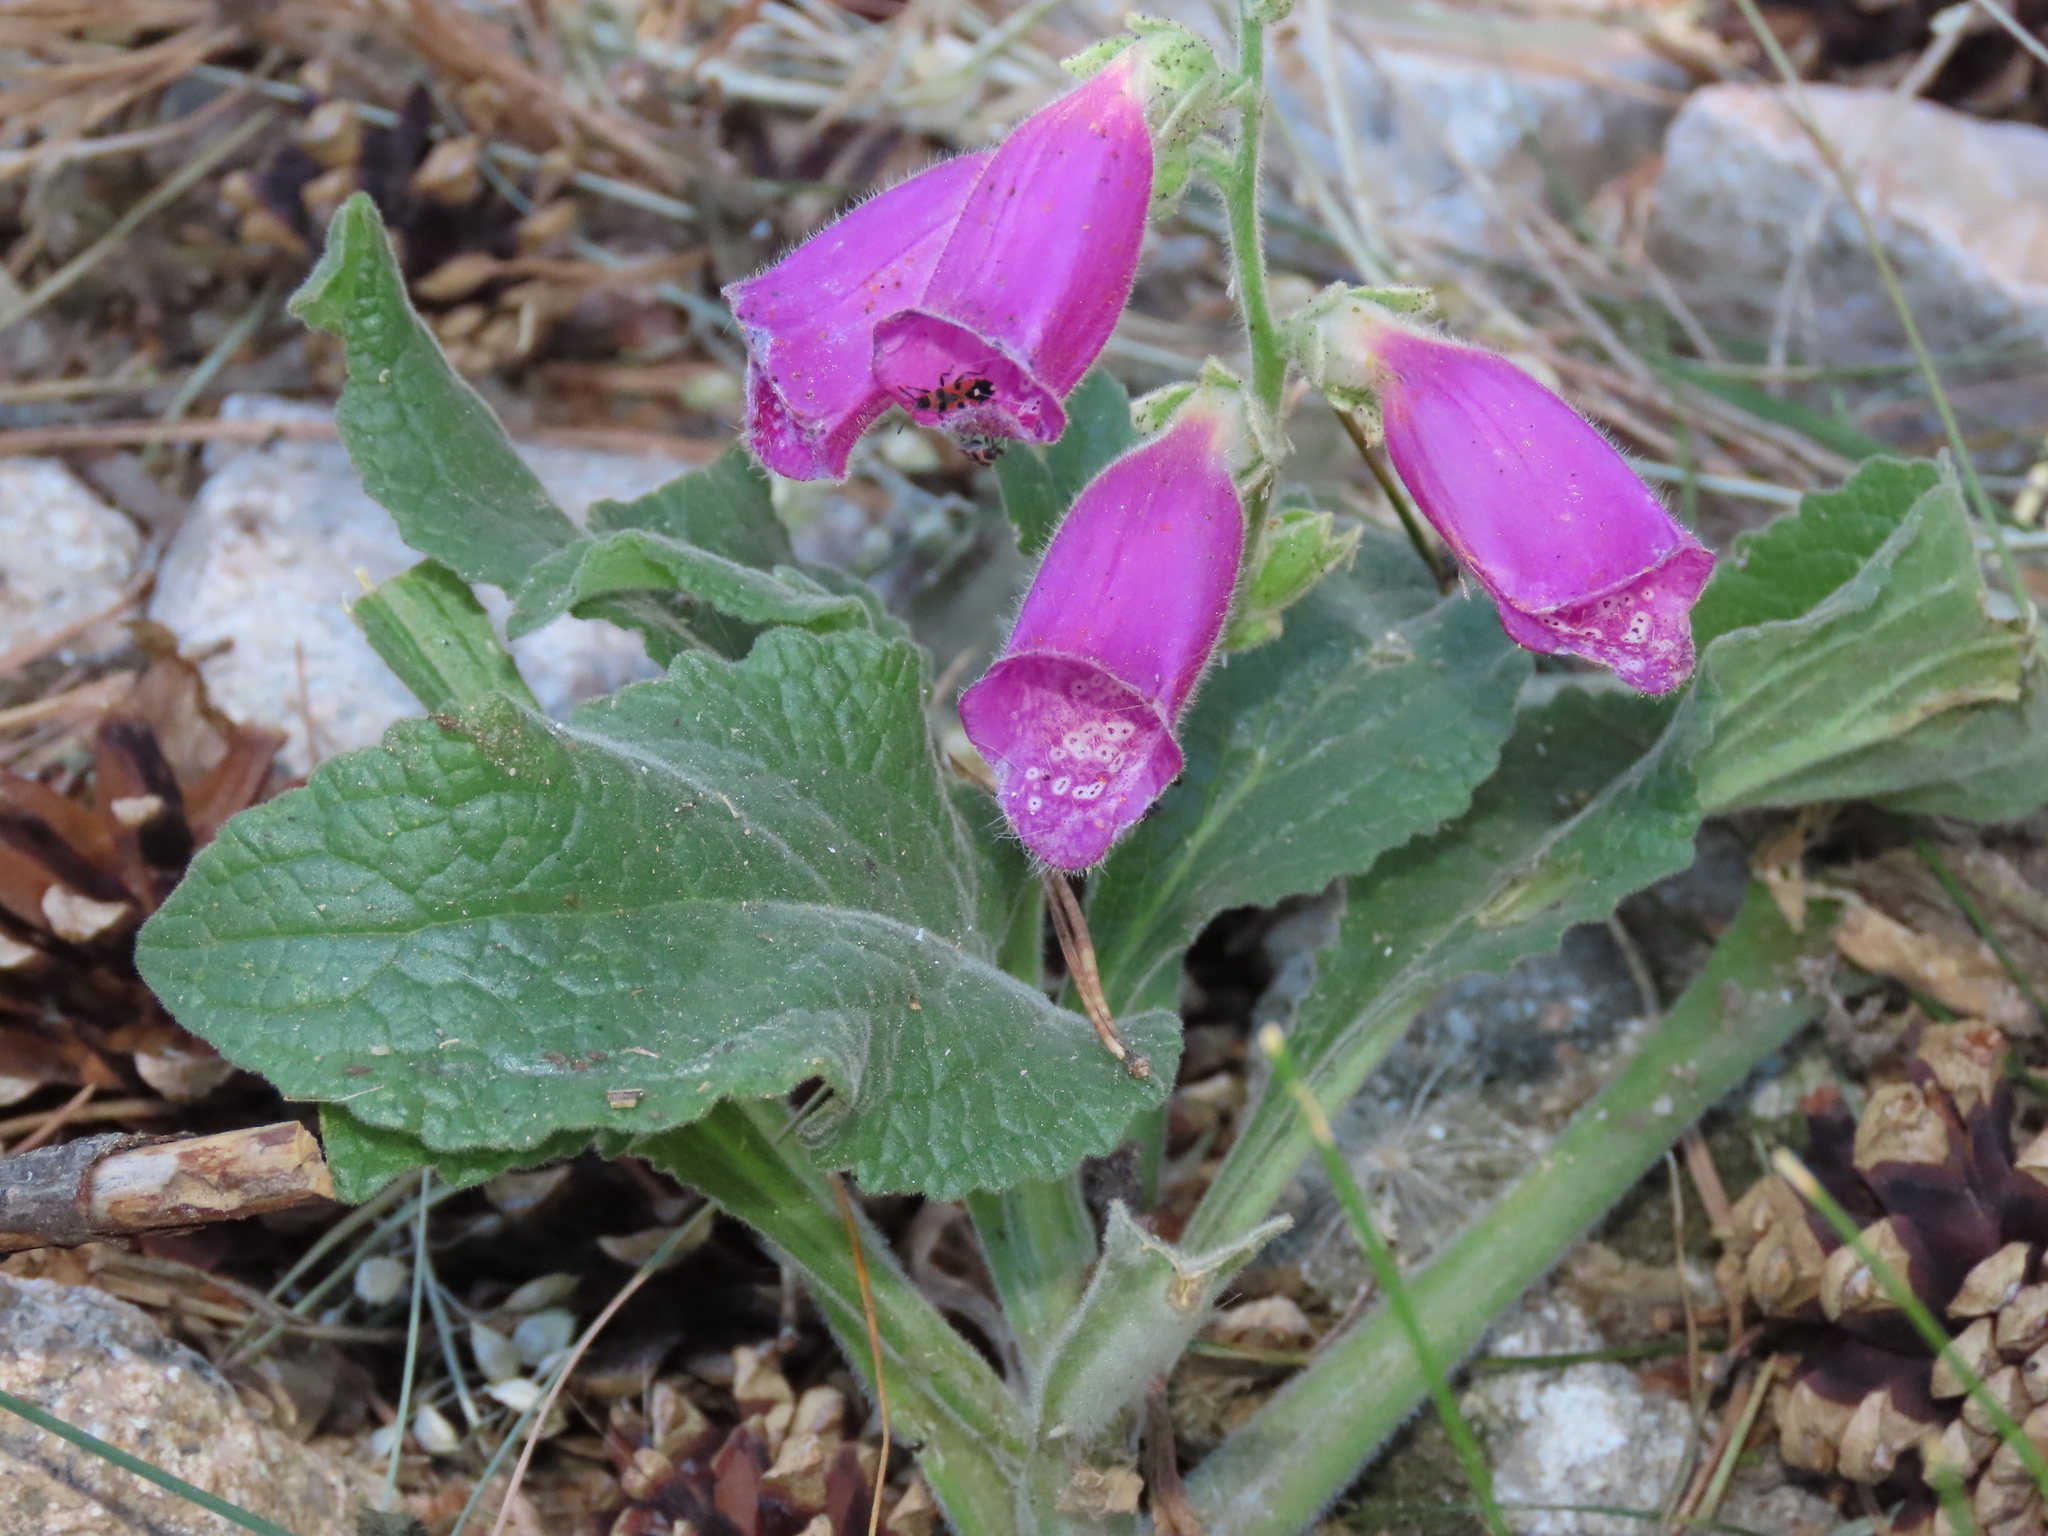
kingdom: Plantae
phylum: Tracheophyta
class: Magnoliopsida
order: Lamiales
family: Plantaginaceae
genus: Digitalis
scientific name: Digitalis purpurea
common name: Foxglove
